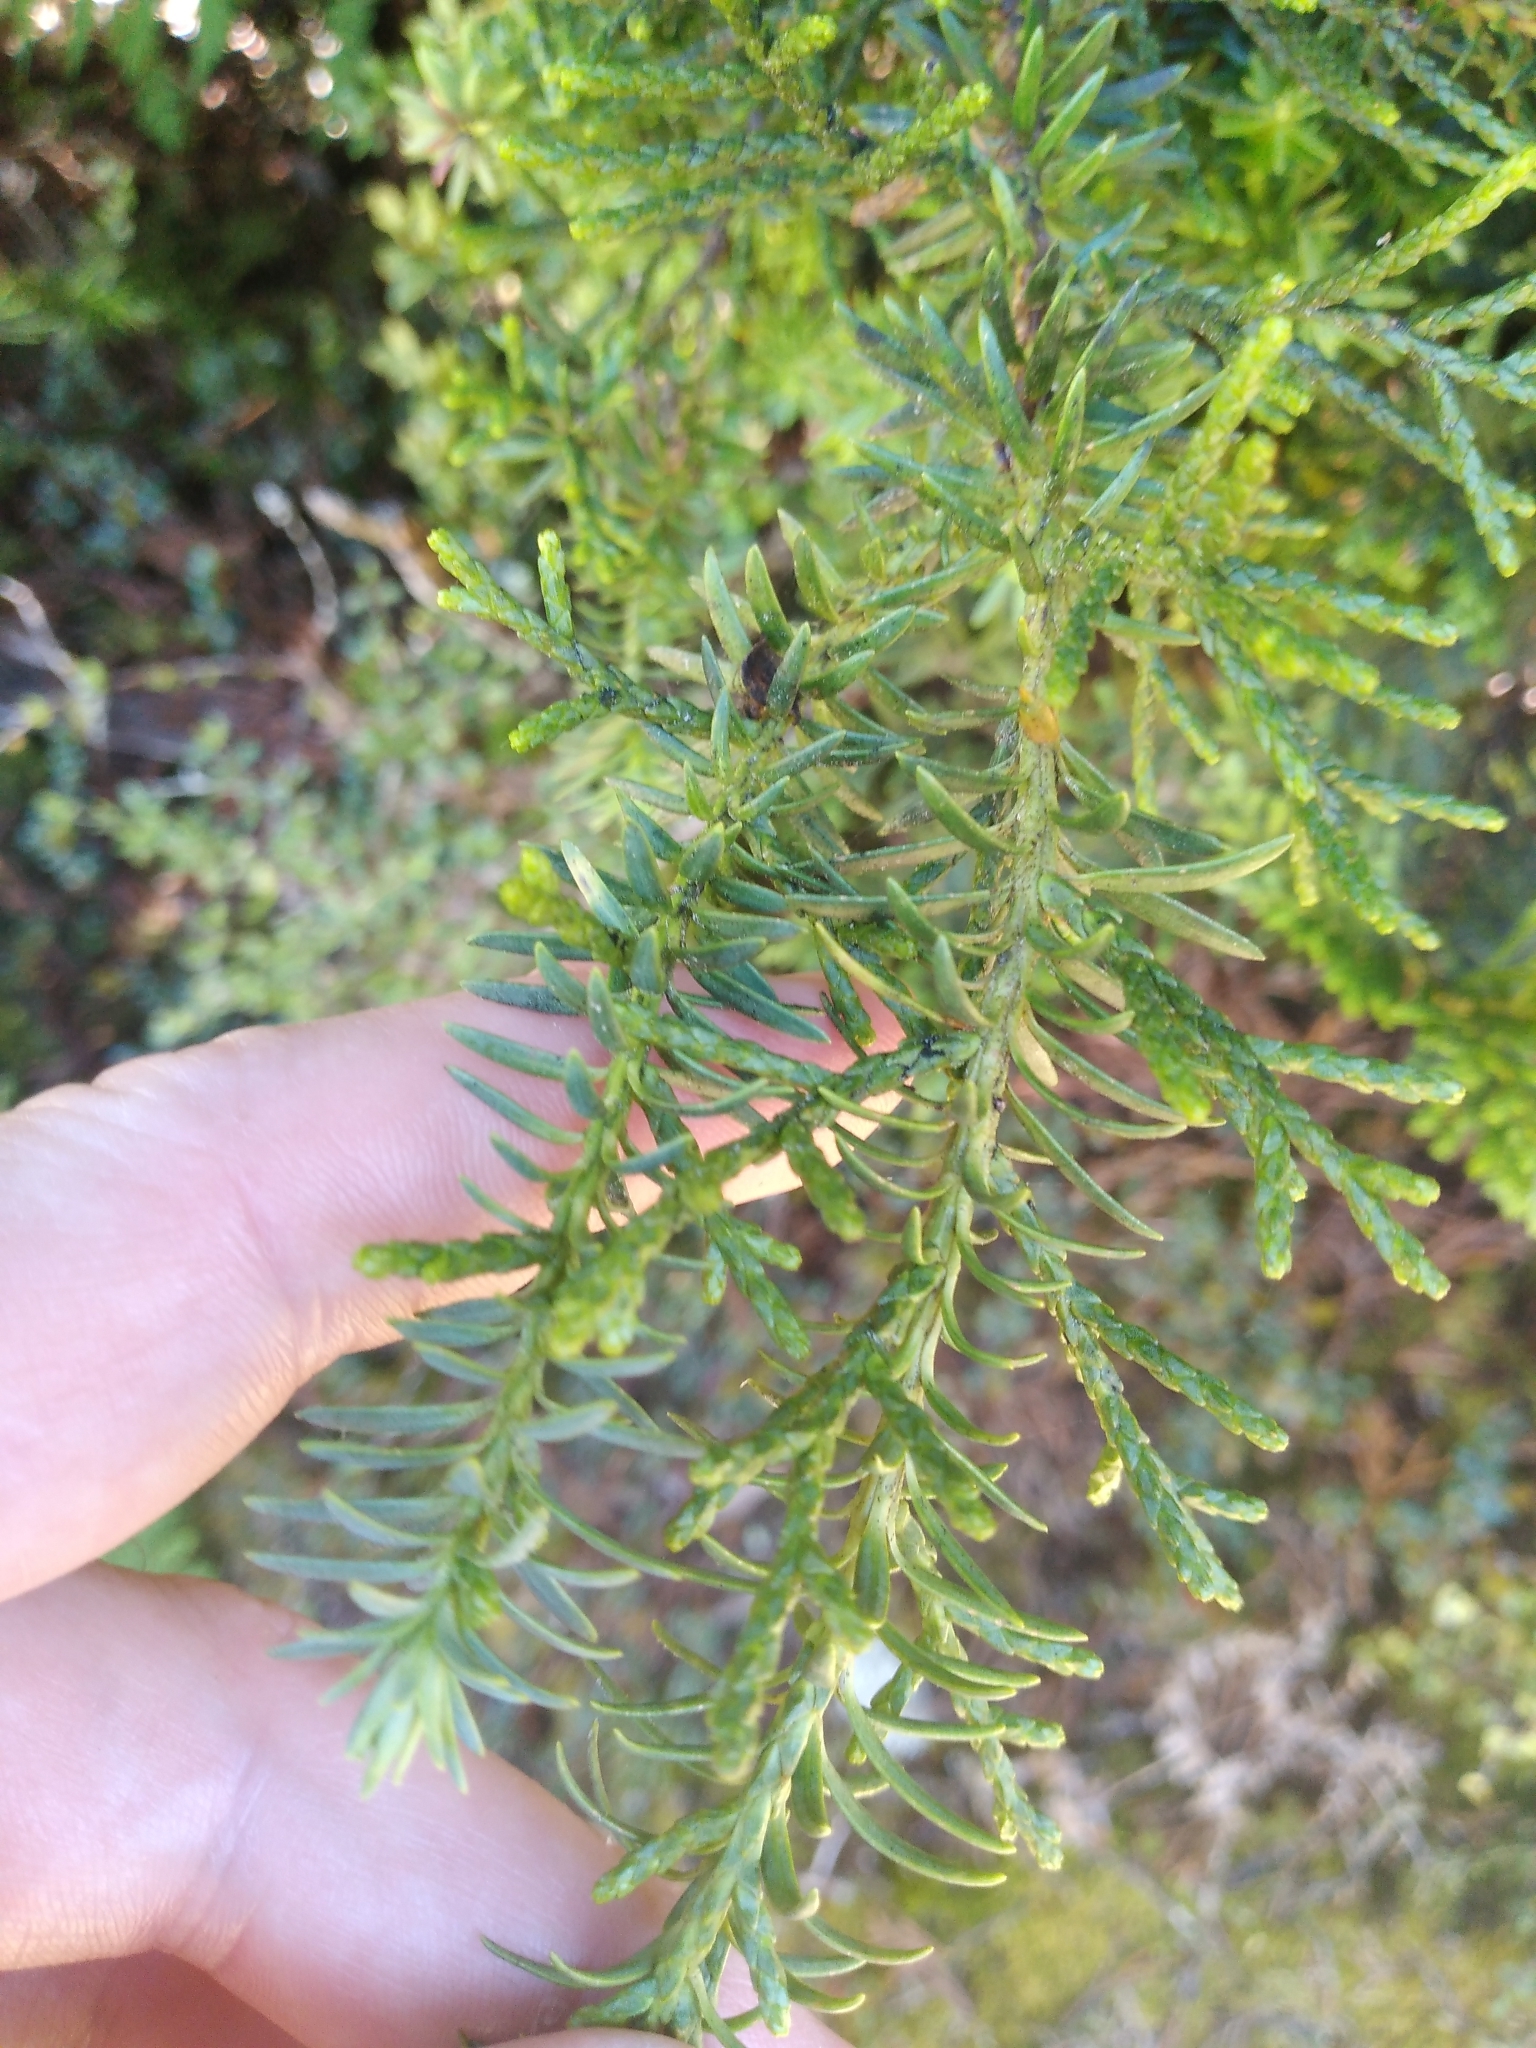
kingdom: Plantae
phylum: Tracheophyta
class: Pinopsida
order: Pinales
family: Podocarpaceae
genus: Halocarpus
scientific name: Halocarpus biformis
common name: Alpine tarwood
